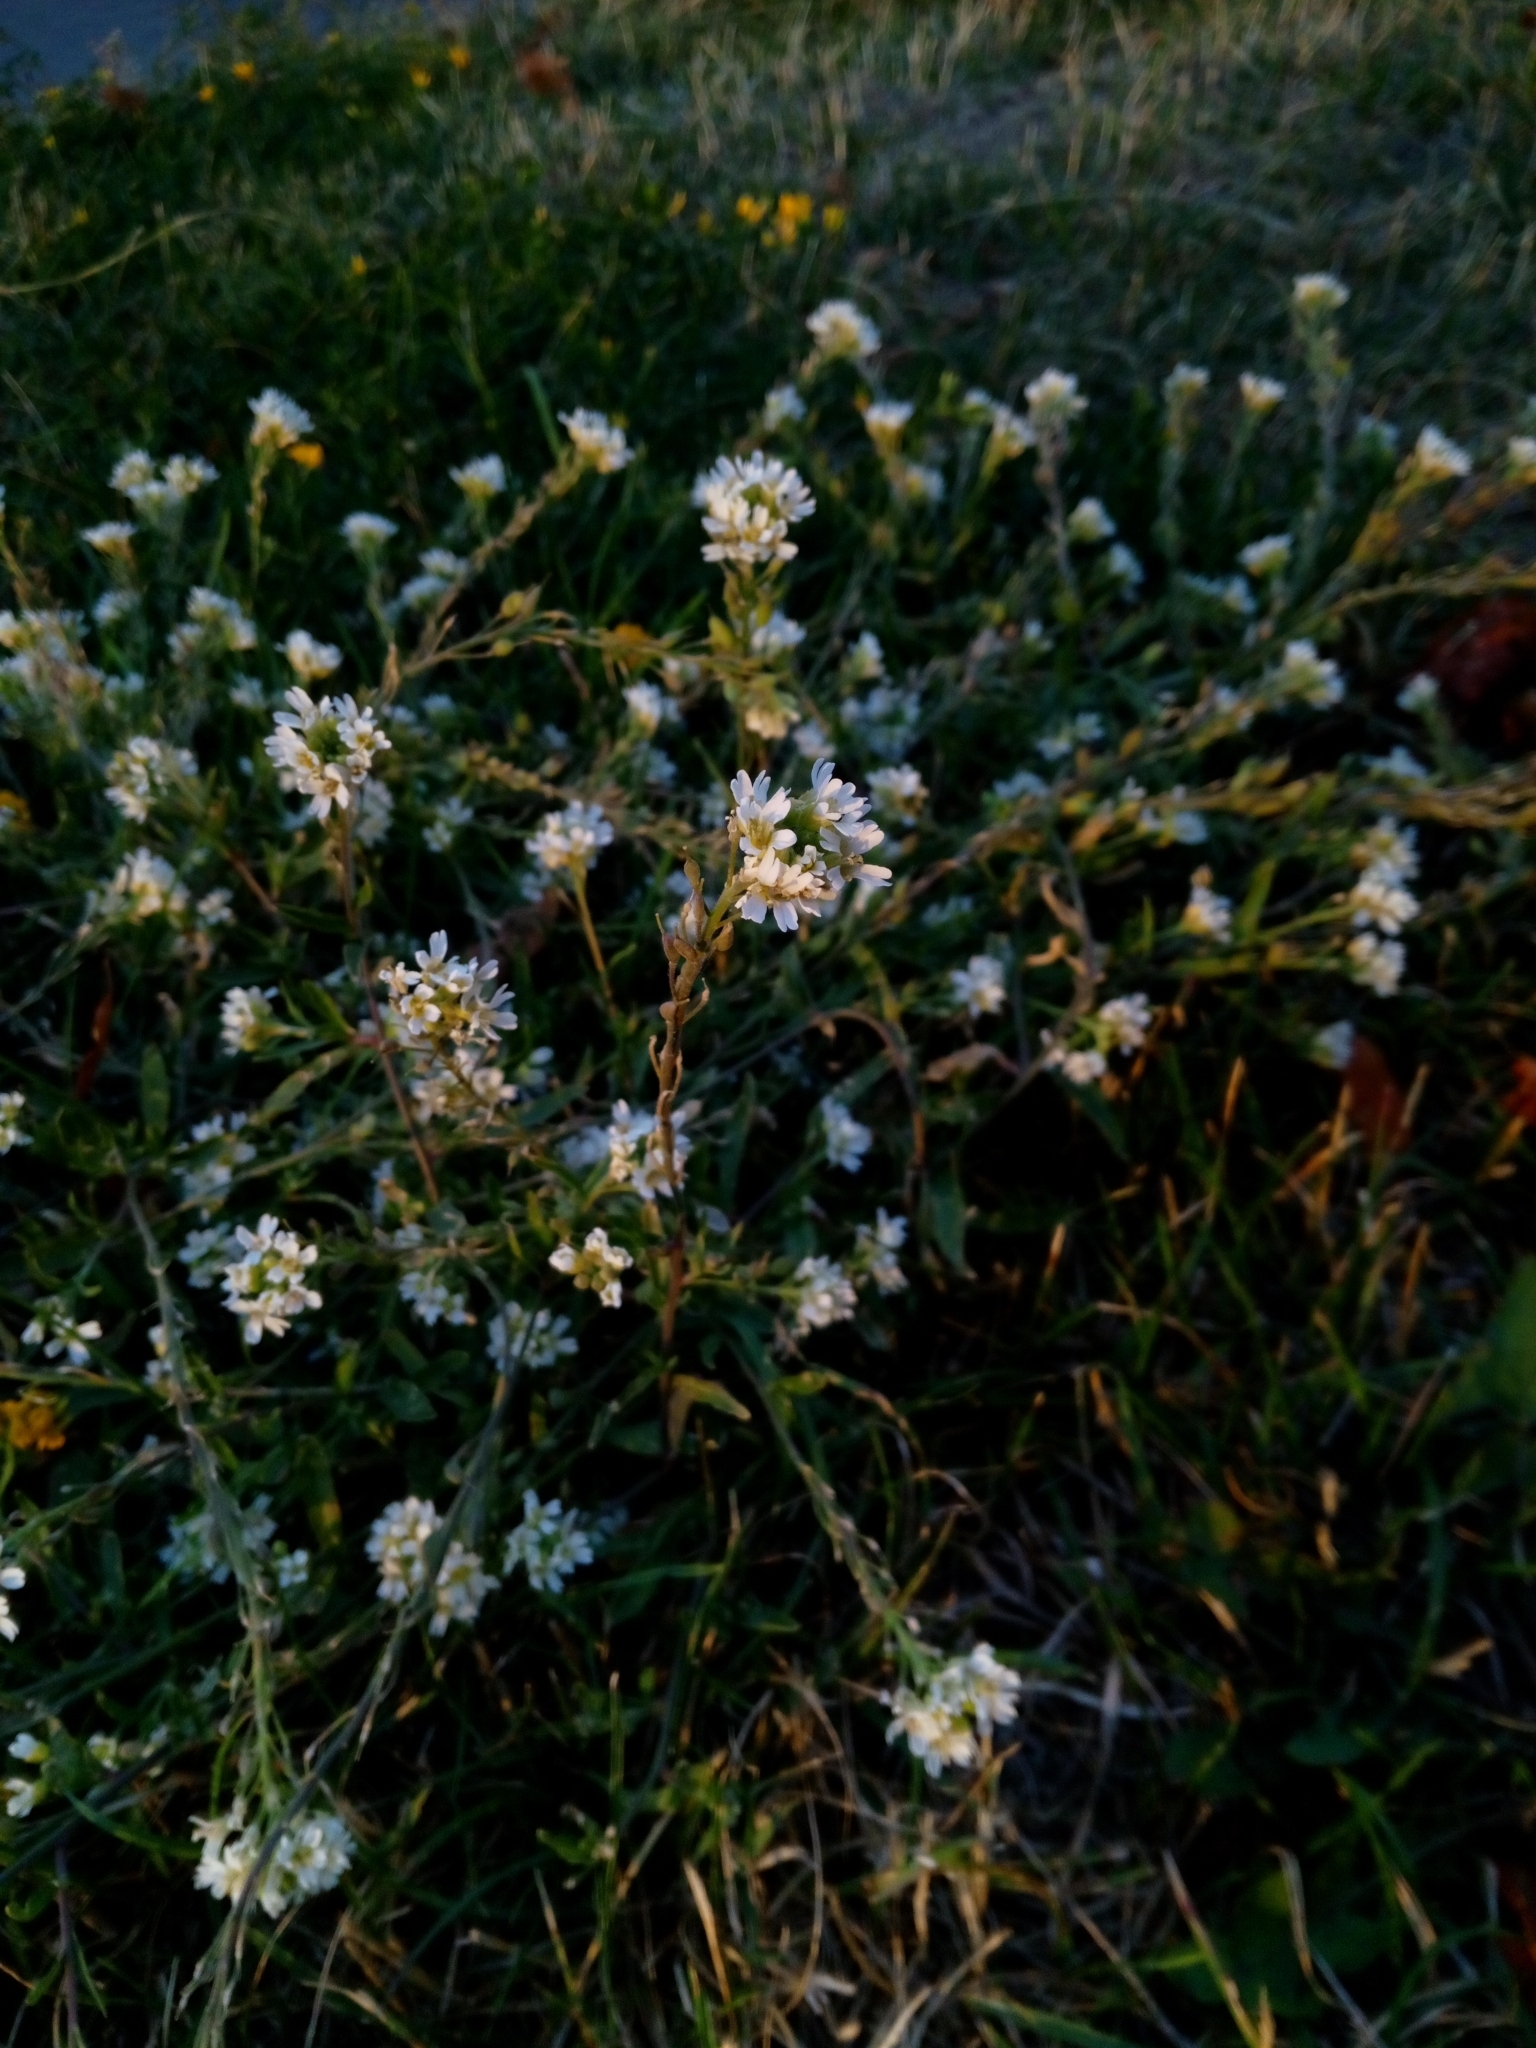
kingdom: Plantae
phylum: Tracheophyta
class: Magnoliopsida
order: Brassicales
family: Brassicaceae
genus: Berteroa
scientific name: Berteroa incana
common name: Hoary alison
